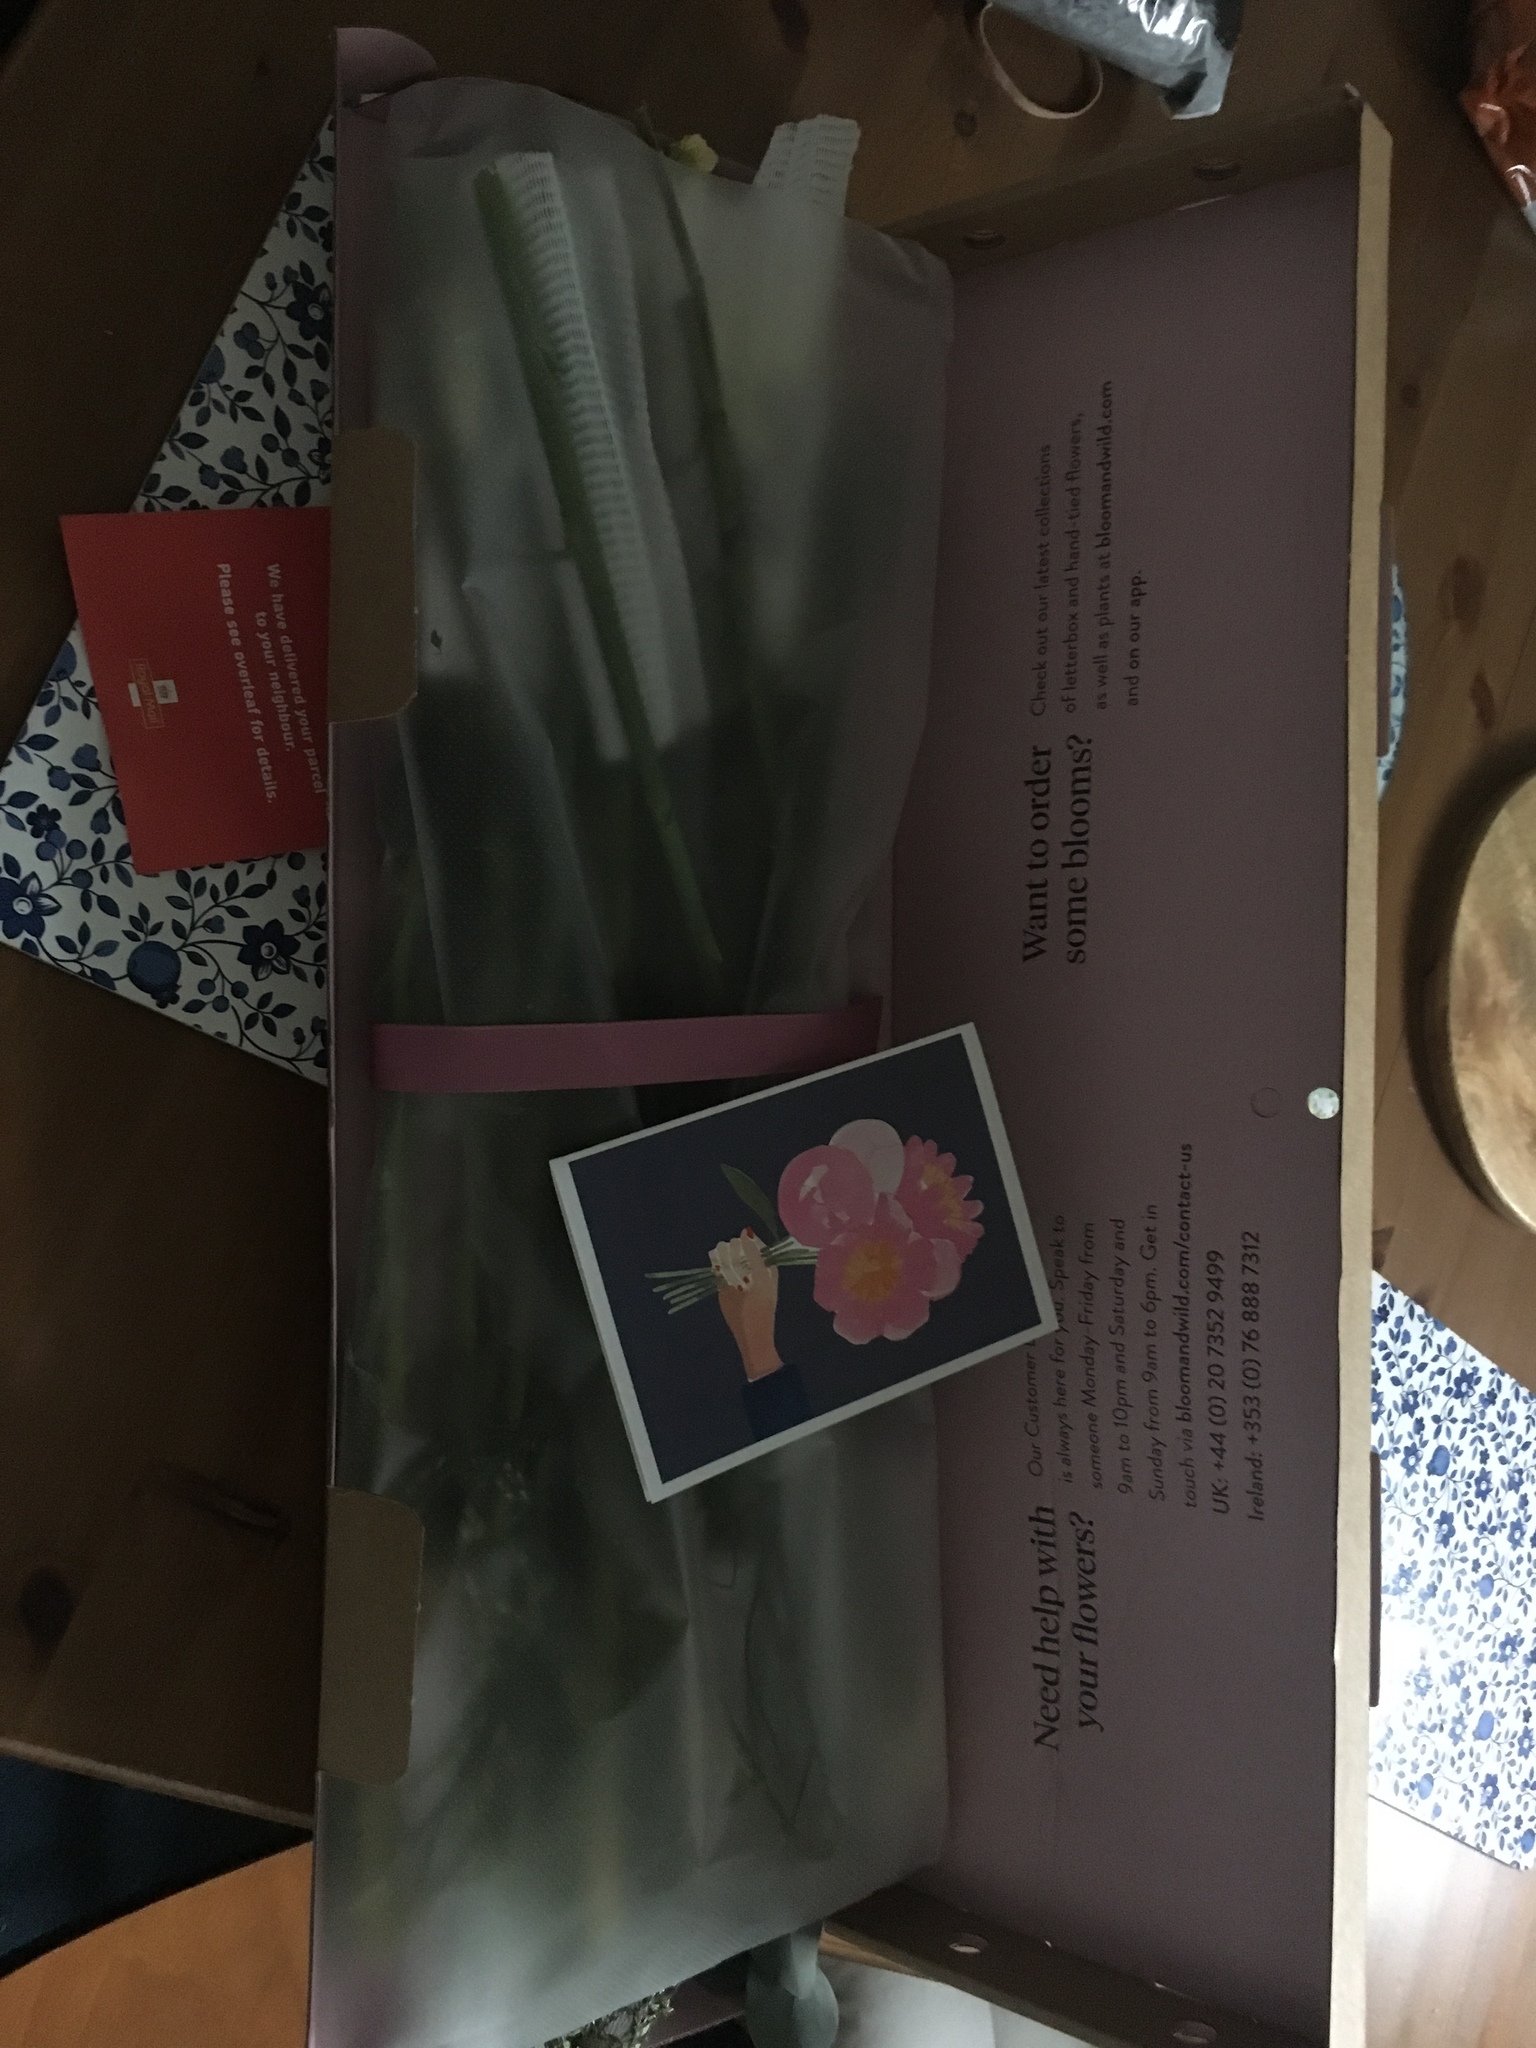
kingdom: Animalia
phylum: Chordata
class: Mammalia
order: Rodentia
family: Sciuridae
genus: Sciurus
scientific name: Sciurus carolinensis
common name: Eastern gray squirrel
